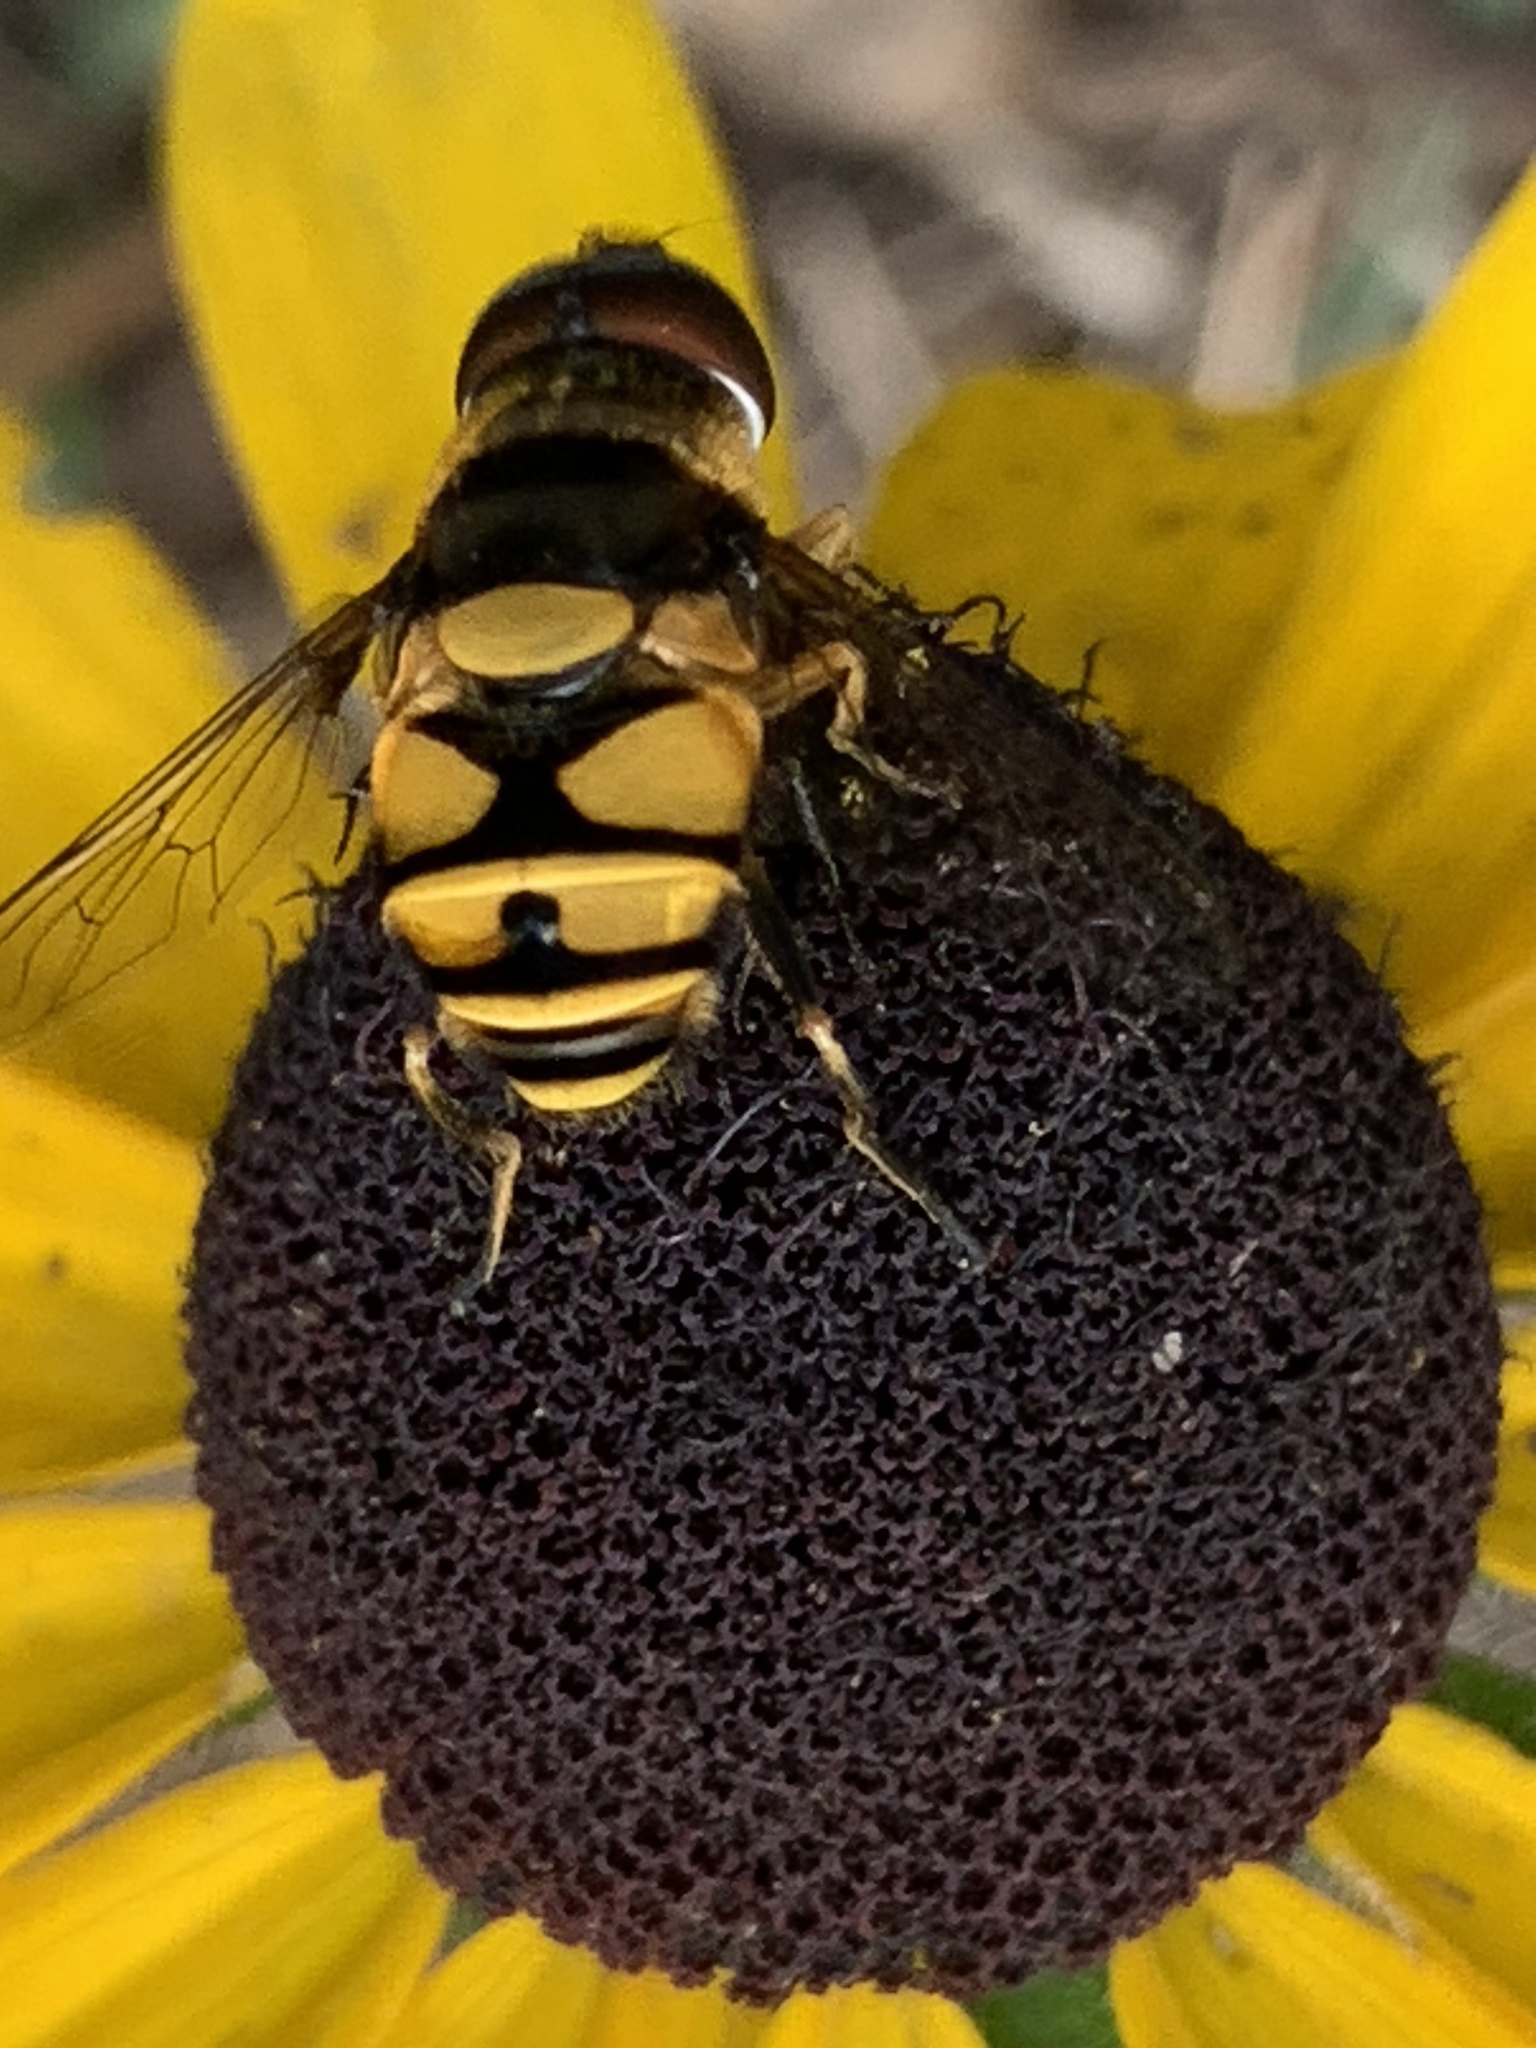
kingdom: Animalia
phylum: Arthropoda
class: Insecta
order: Diptera
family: Syrphidae
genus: Eristalis
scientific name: Eristalis transversa
